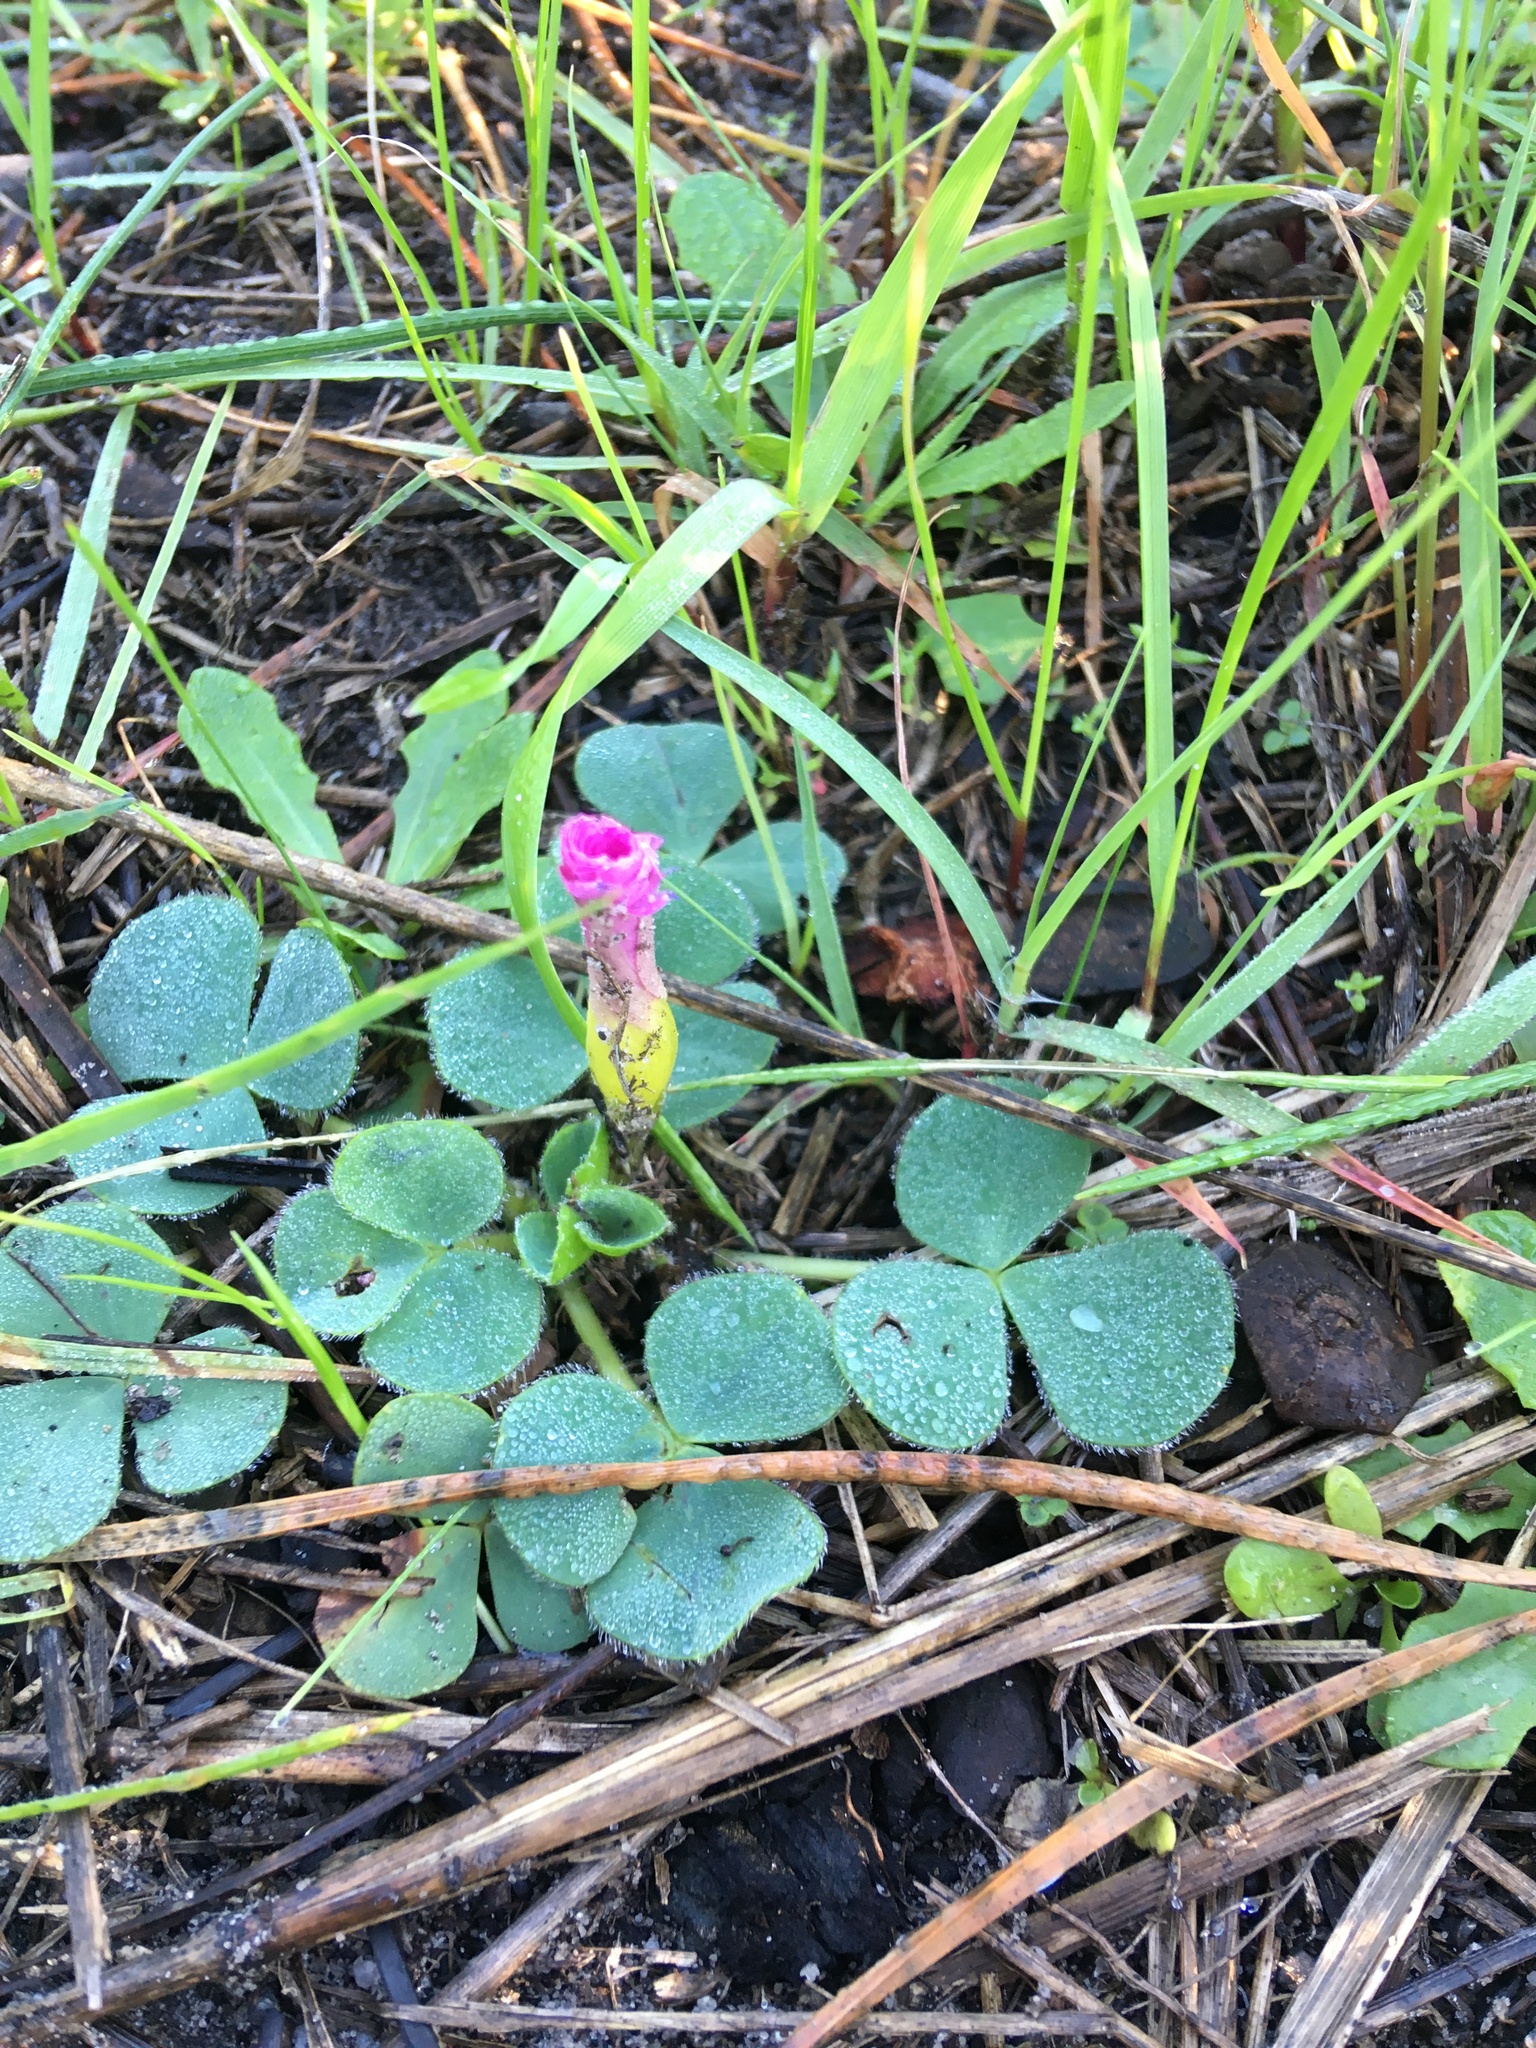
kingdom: Plantae
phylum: Tracheophyta
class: Magnoliopsida
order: Oxalidales
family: Oxalidaceae
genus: Oxalis
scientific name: Oxalis purpurea
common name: Purple woodsorrel
